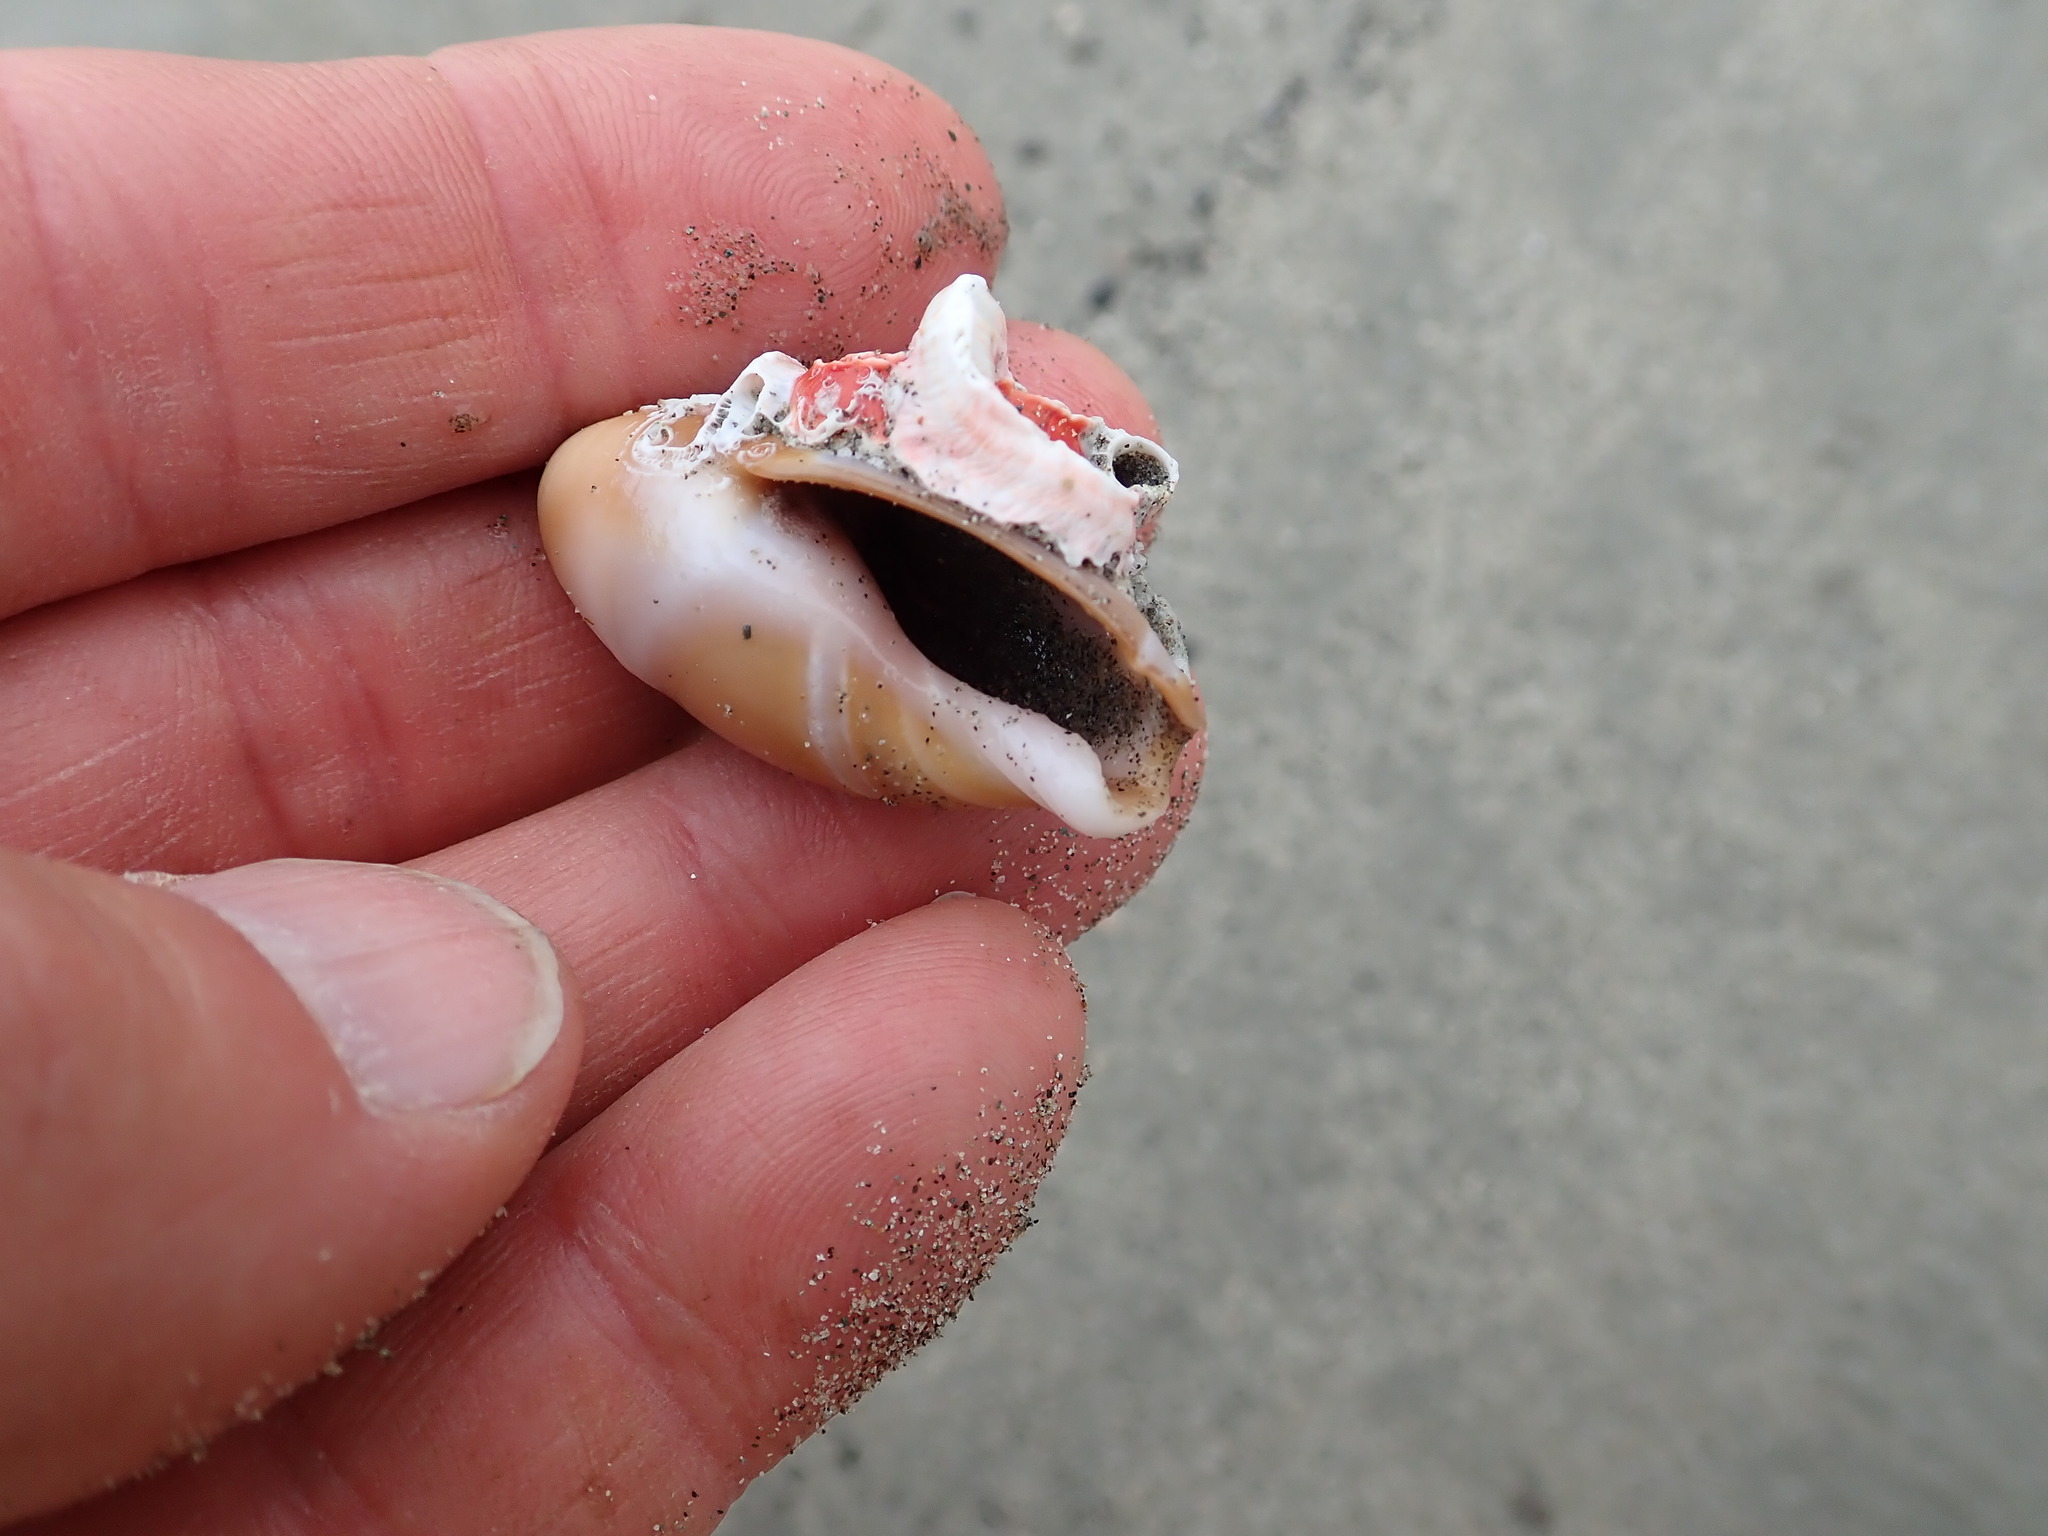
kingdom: Animalia
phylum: Mollusca
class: Gastropoda
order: Neogastropoda
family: Ancillariidae
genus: Amalda
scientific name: Amalda mucronata
